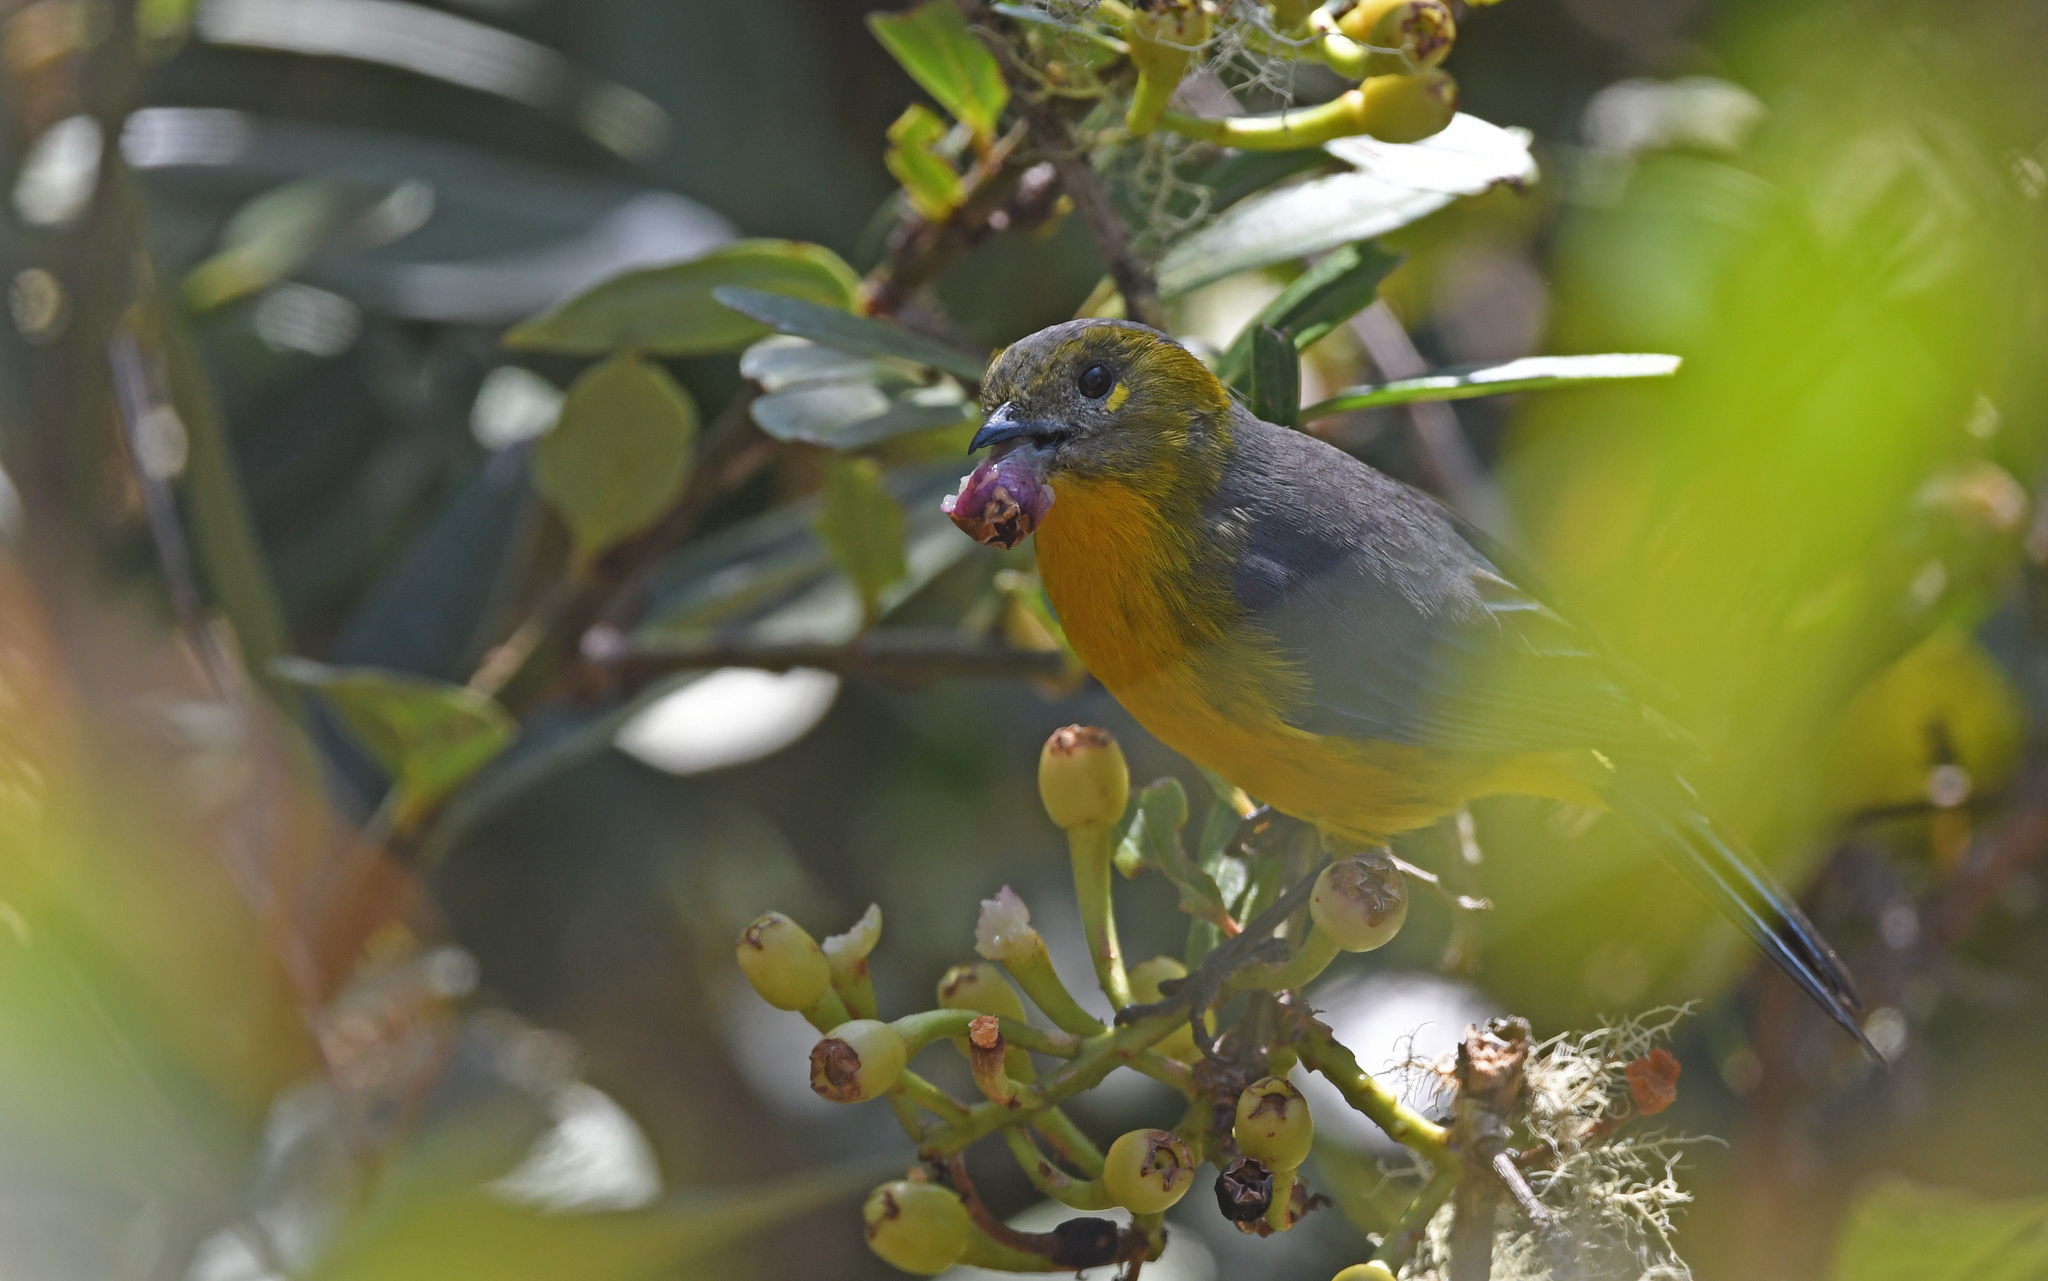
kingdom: Animalia
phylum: Chordata
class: Aves
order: Passeriformes
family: Thraupidae
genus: Anisognathus
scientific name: Anisognathus lacrymosus
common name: Lacrimose mountain-tanager
